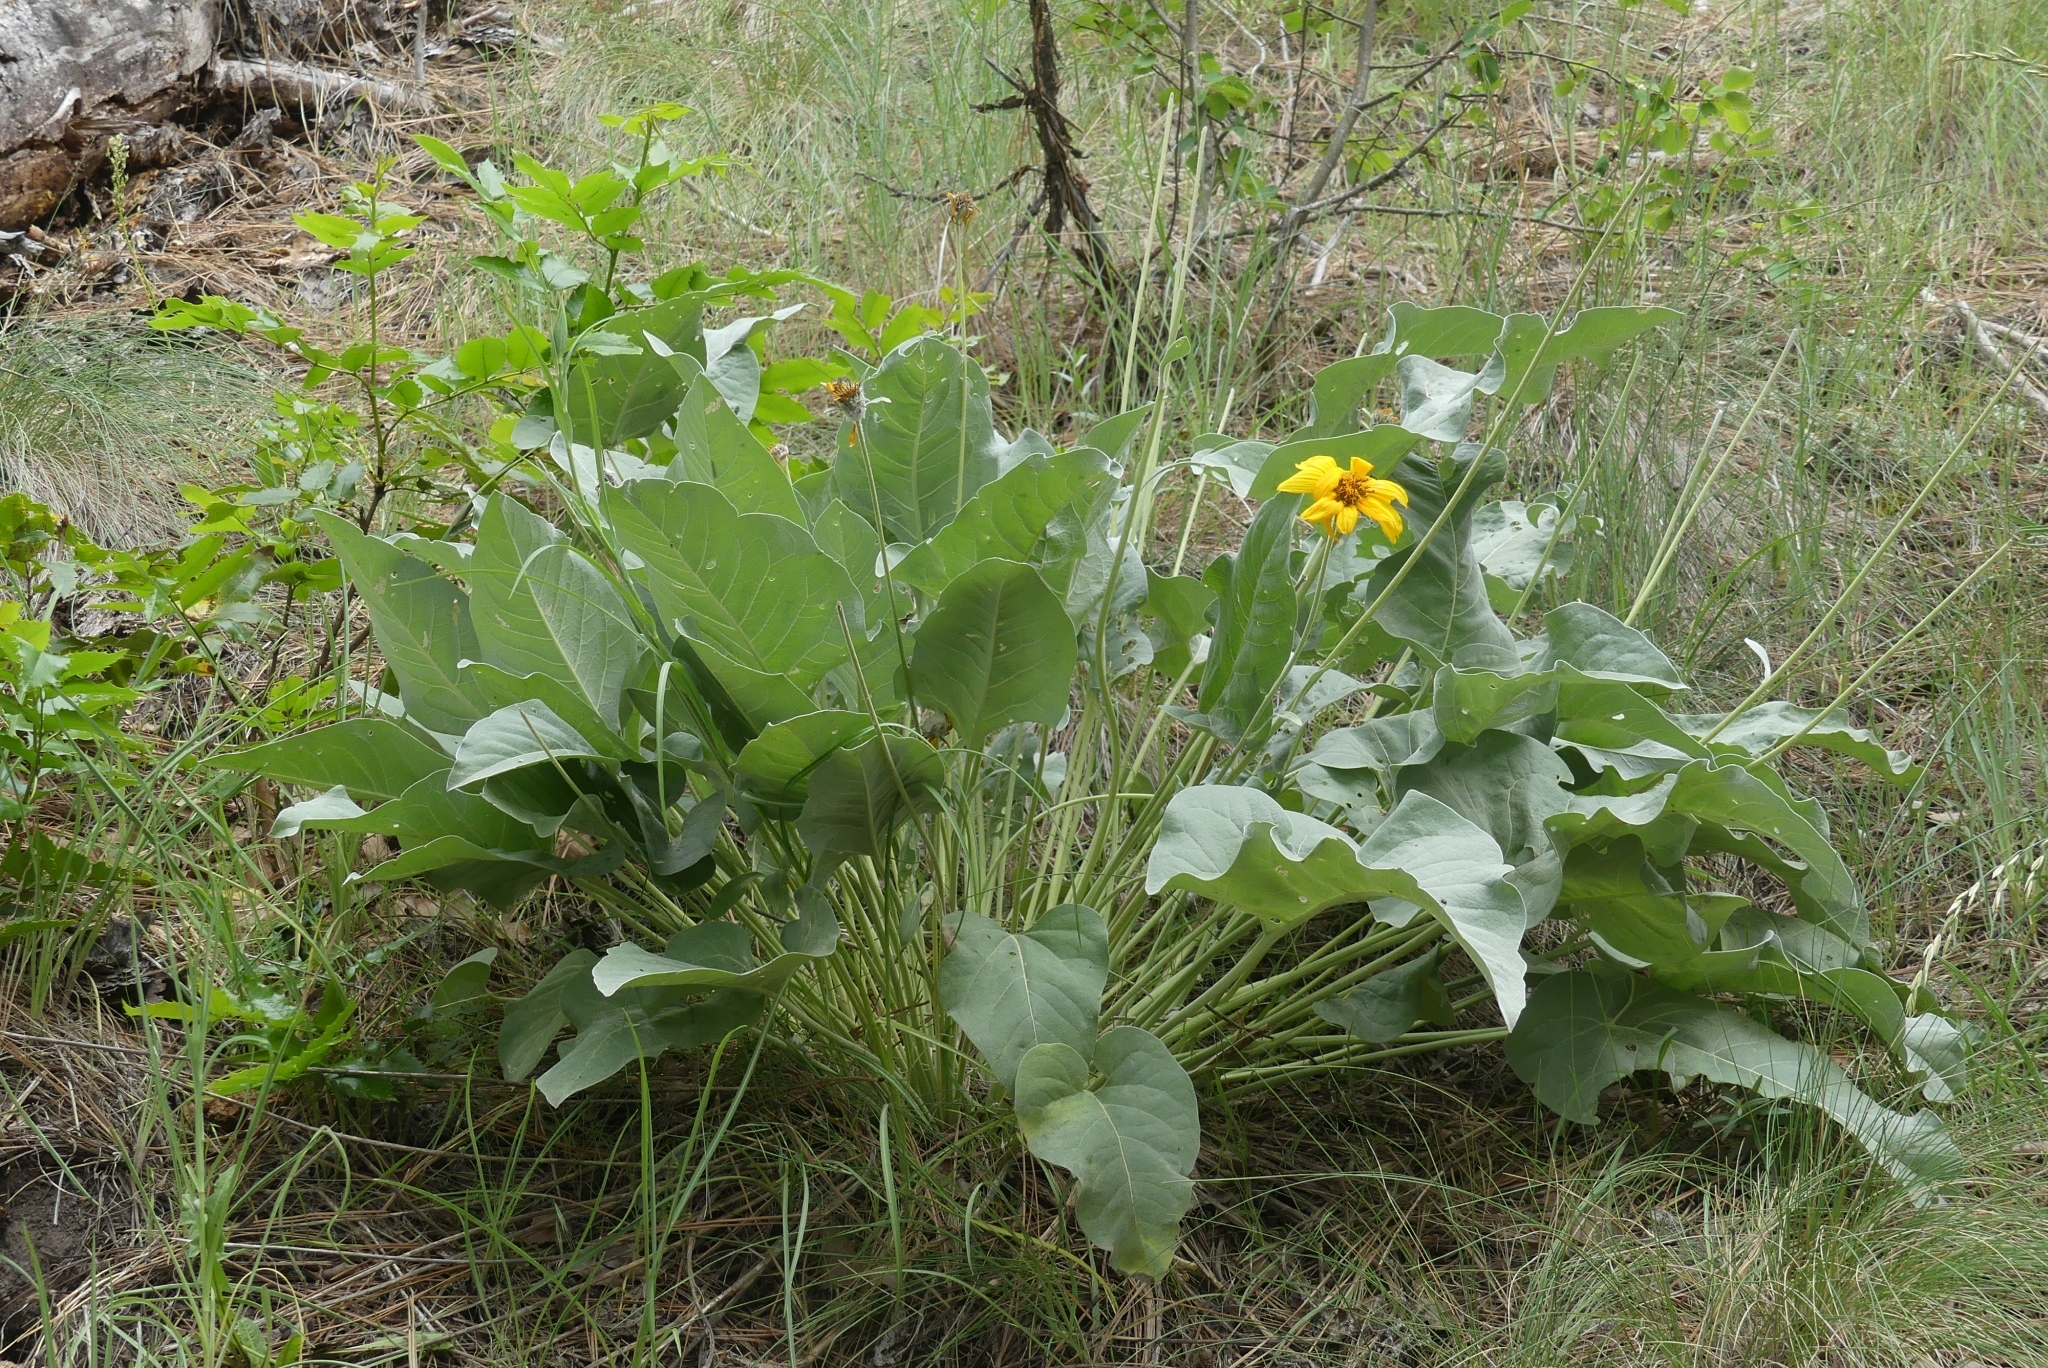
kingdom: Plantae
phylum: Tracheophyta
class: Magnoliopsida
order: Asterales
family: Asteraceae
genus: Wyethia
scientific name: Wyethia sagittata
